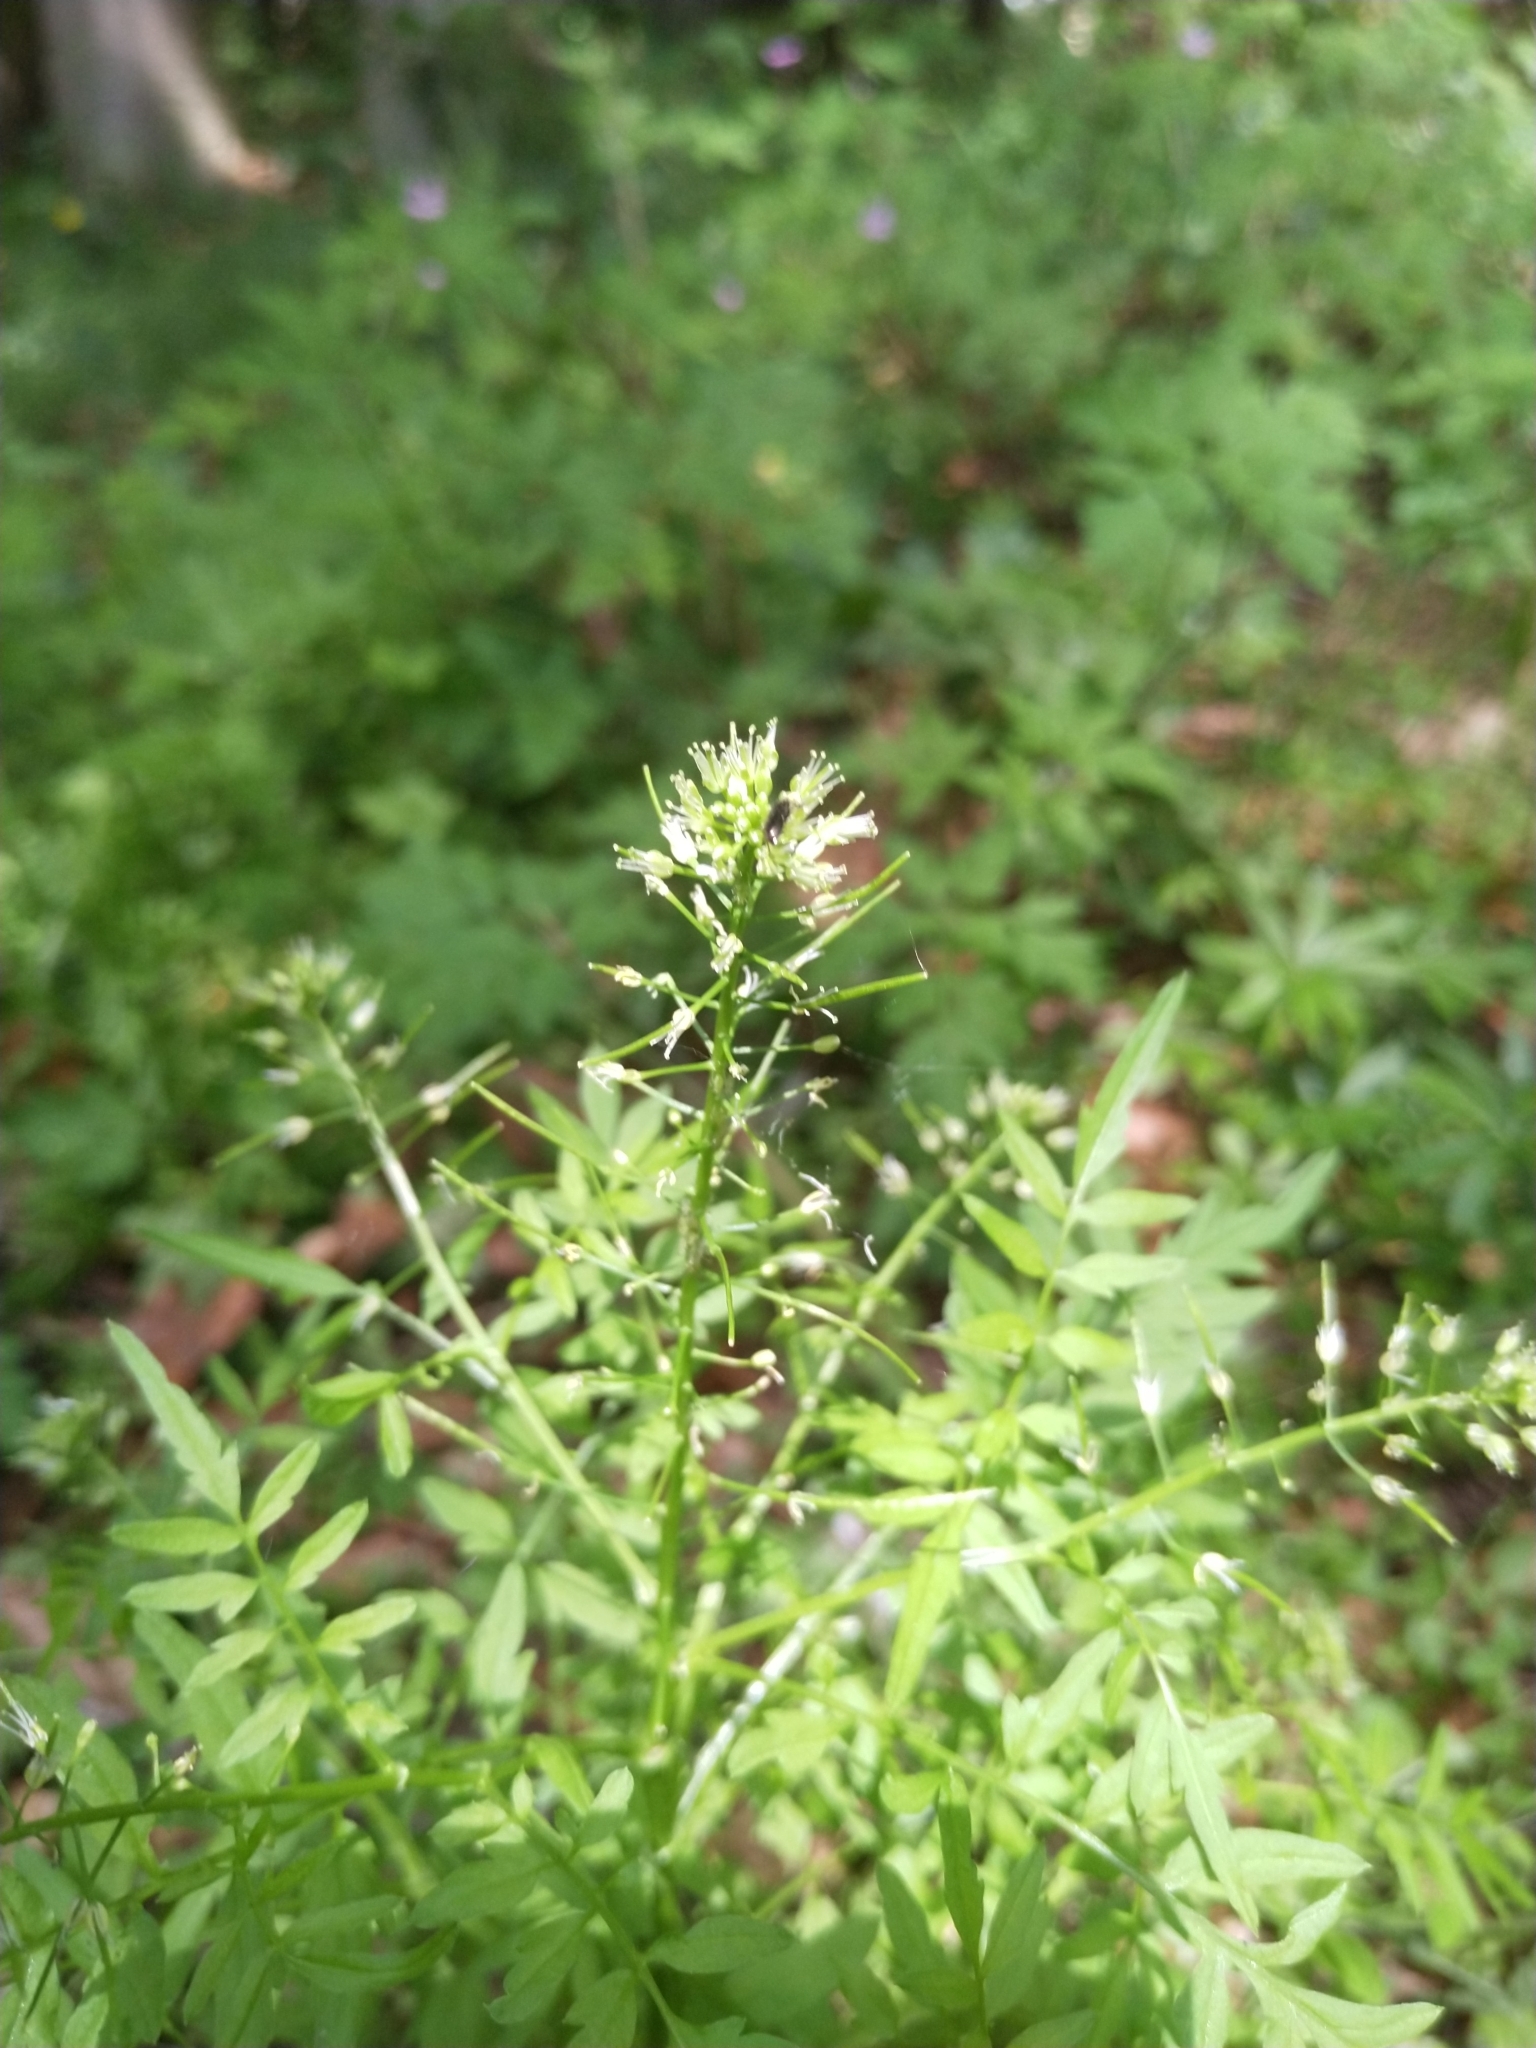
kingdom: Plantae
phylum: Tracheophyta
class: Magnoliopsida
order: Brassicales
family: Brassicaceae
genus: Cardamine
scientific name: Cardamine impatiens
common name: Narrow-leaved bitter-cress
